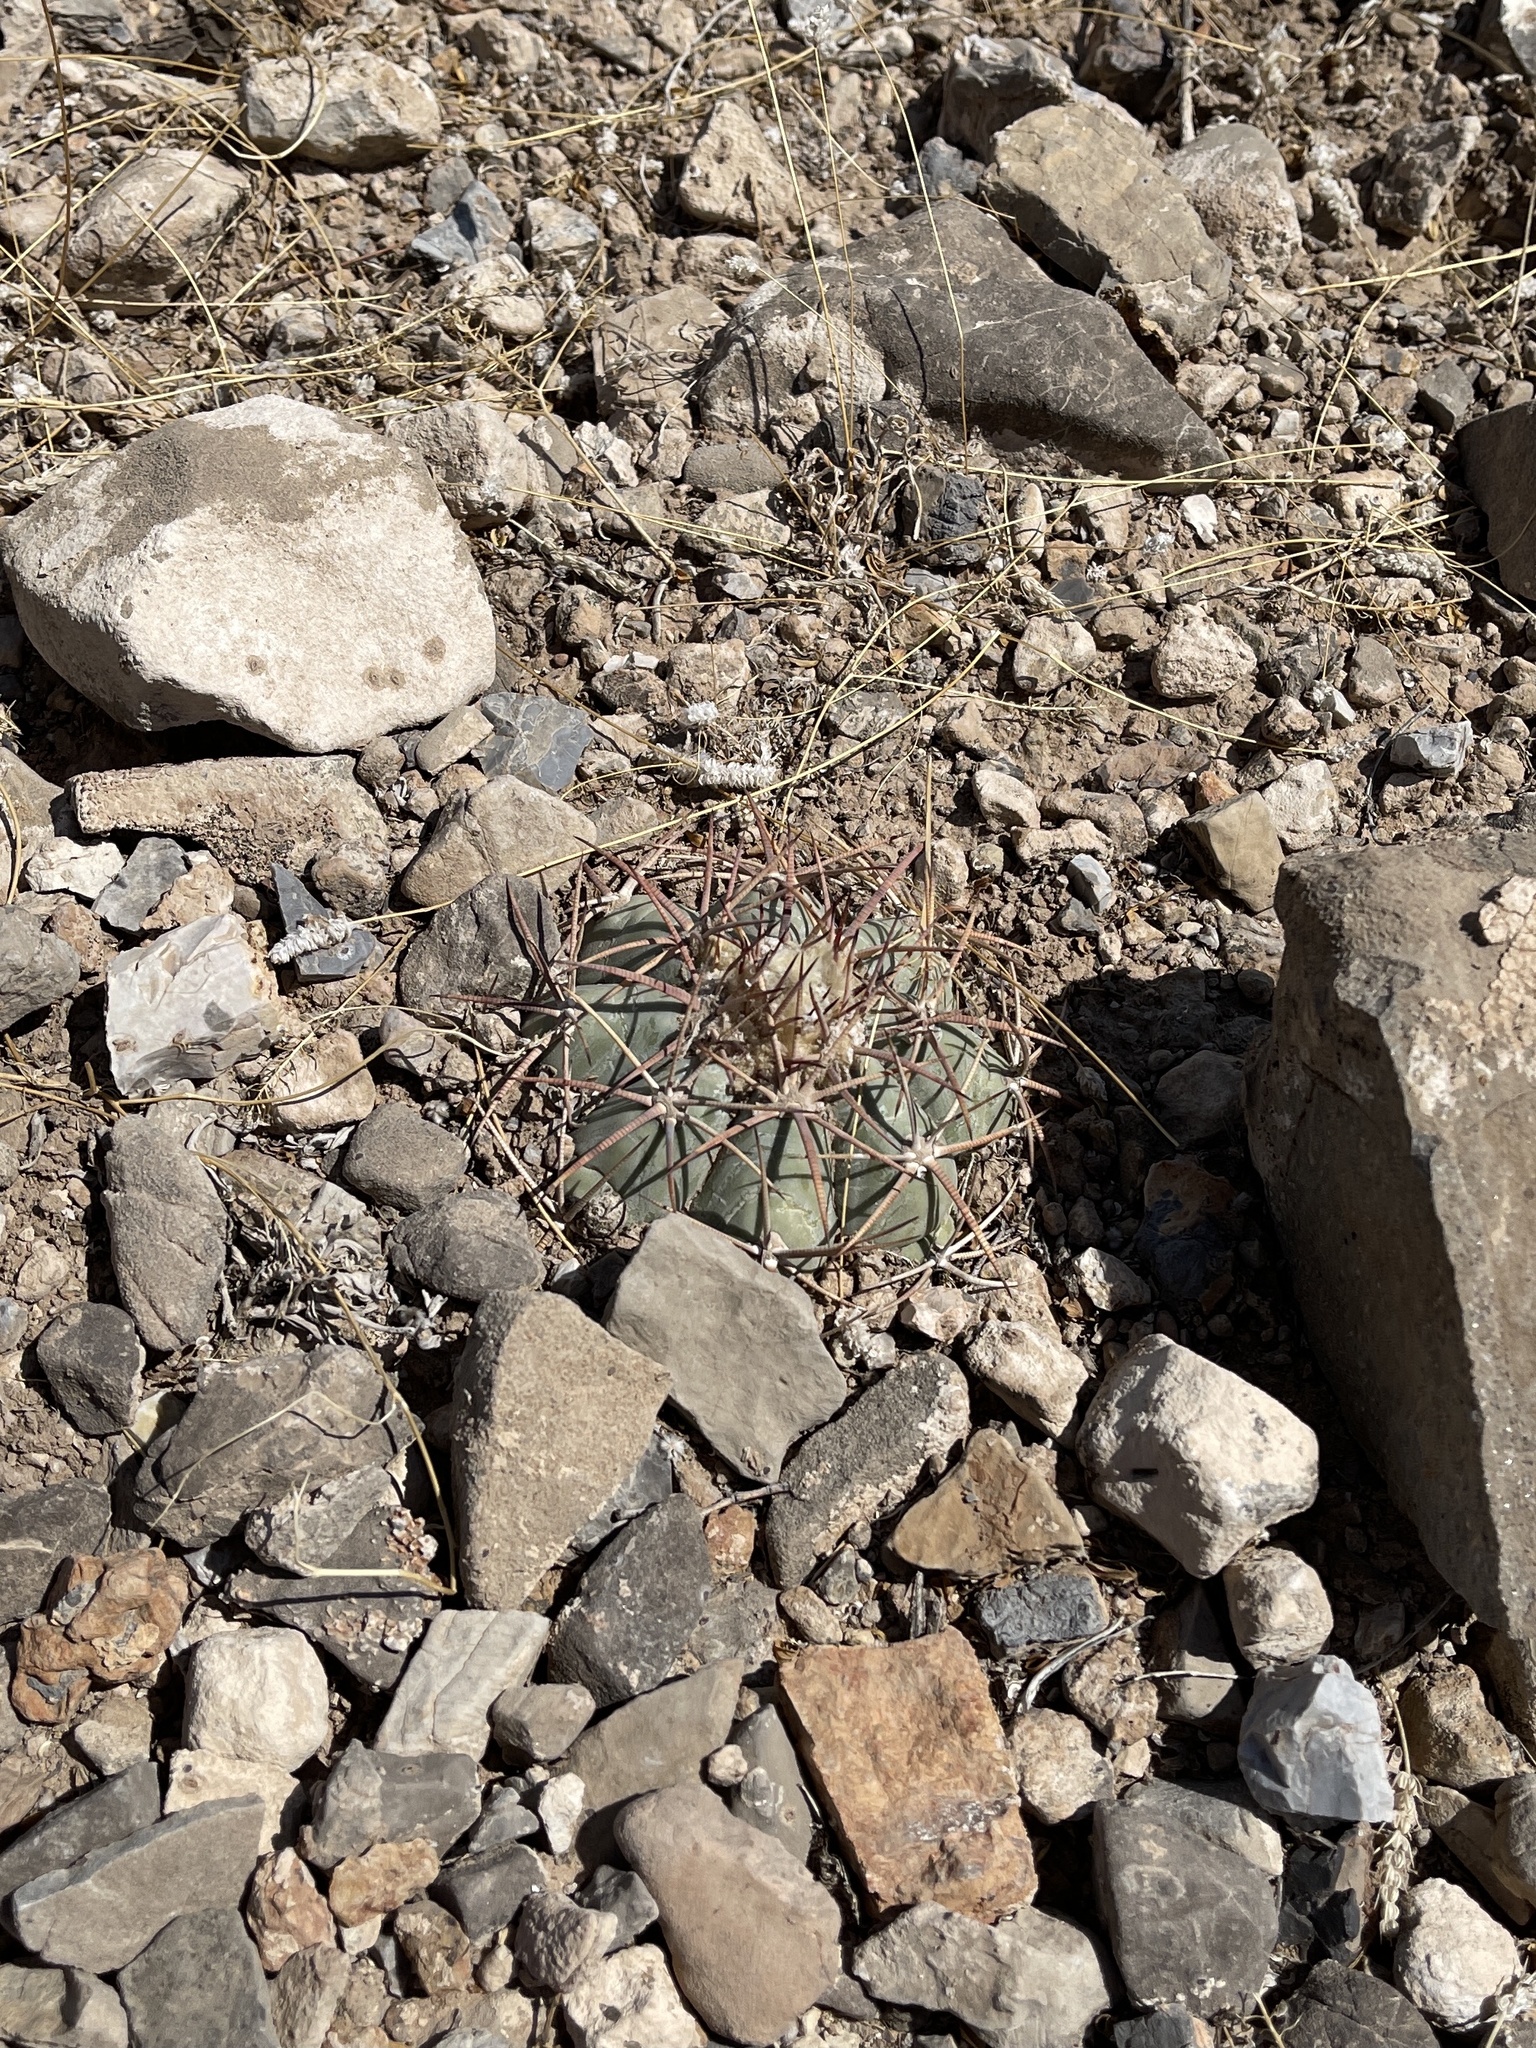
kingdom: Plantae
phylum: Tracheophyta
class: Magnoliopsida
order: Caryophyllales
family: Cactaceae
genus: Echinocactus
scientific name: Echinocactus horizonthalonius
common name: Devilshead
